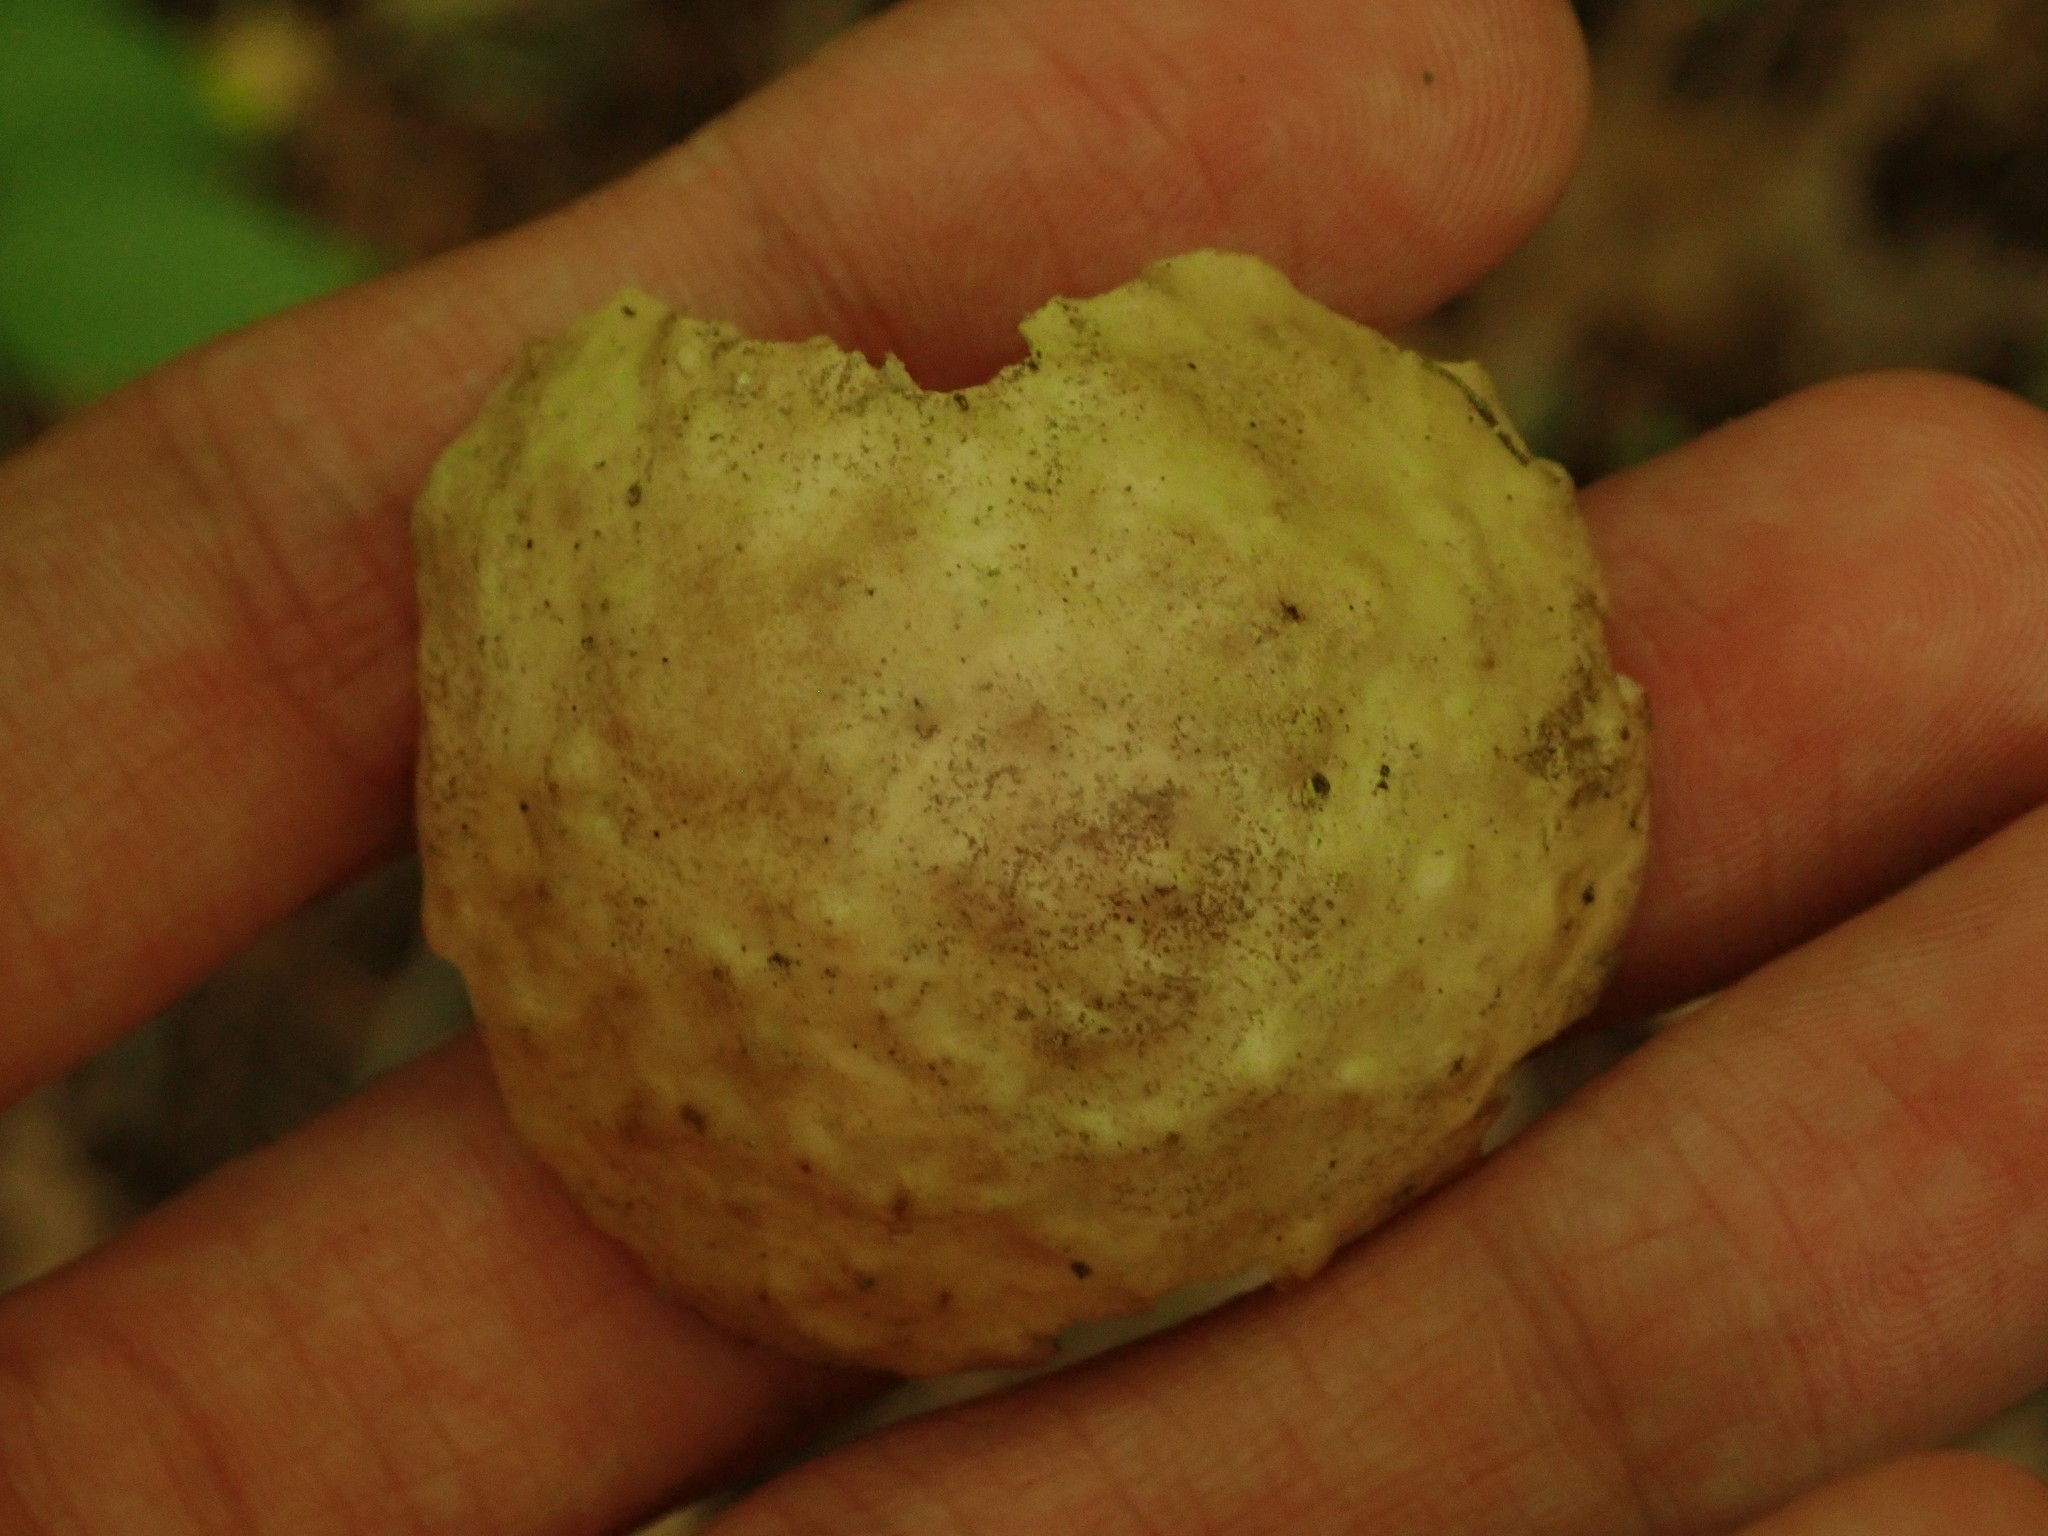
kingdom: Animalia
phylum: Arthropoda
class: Insecta
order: Hymenoptera
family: Cynipidae
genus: Amphibolips
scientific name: Amphibolips
